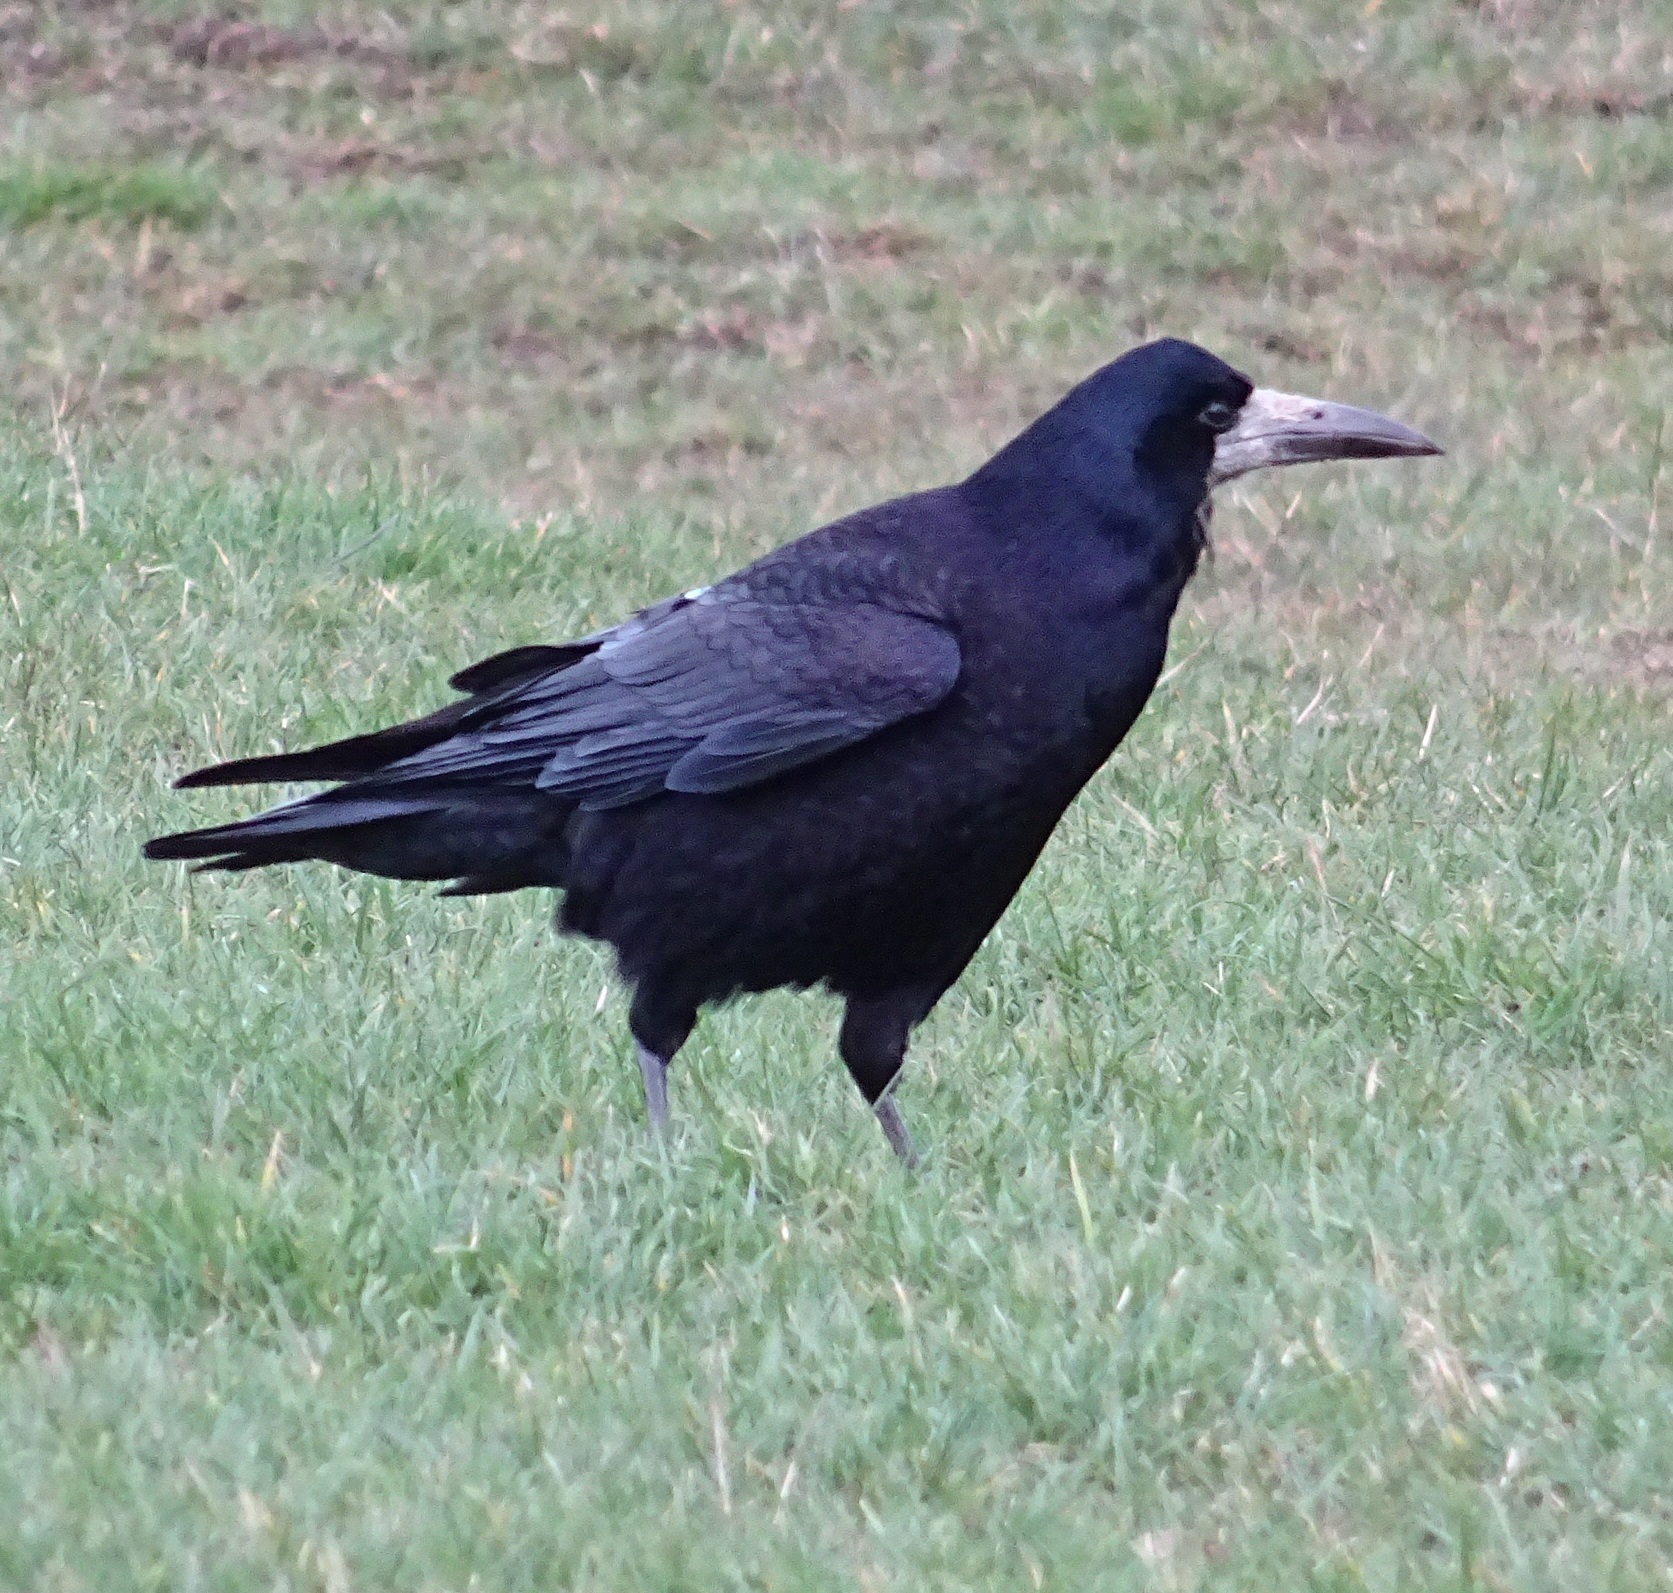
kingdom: Animalia
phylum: Chordata
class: Aves
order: Passeriformes
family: Corvidae
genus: Corvus
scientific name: Corvus frugilegus
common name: Rook
